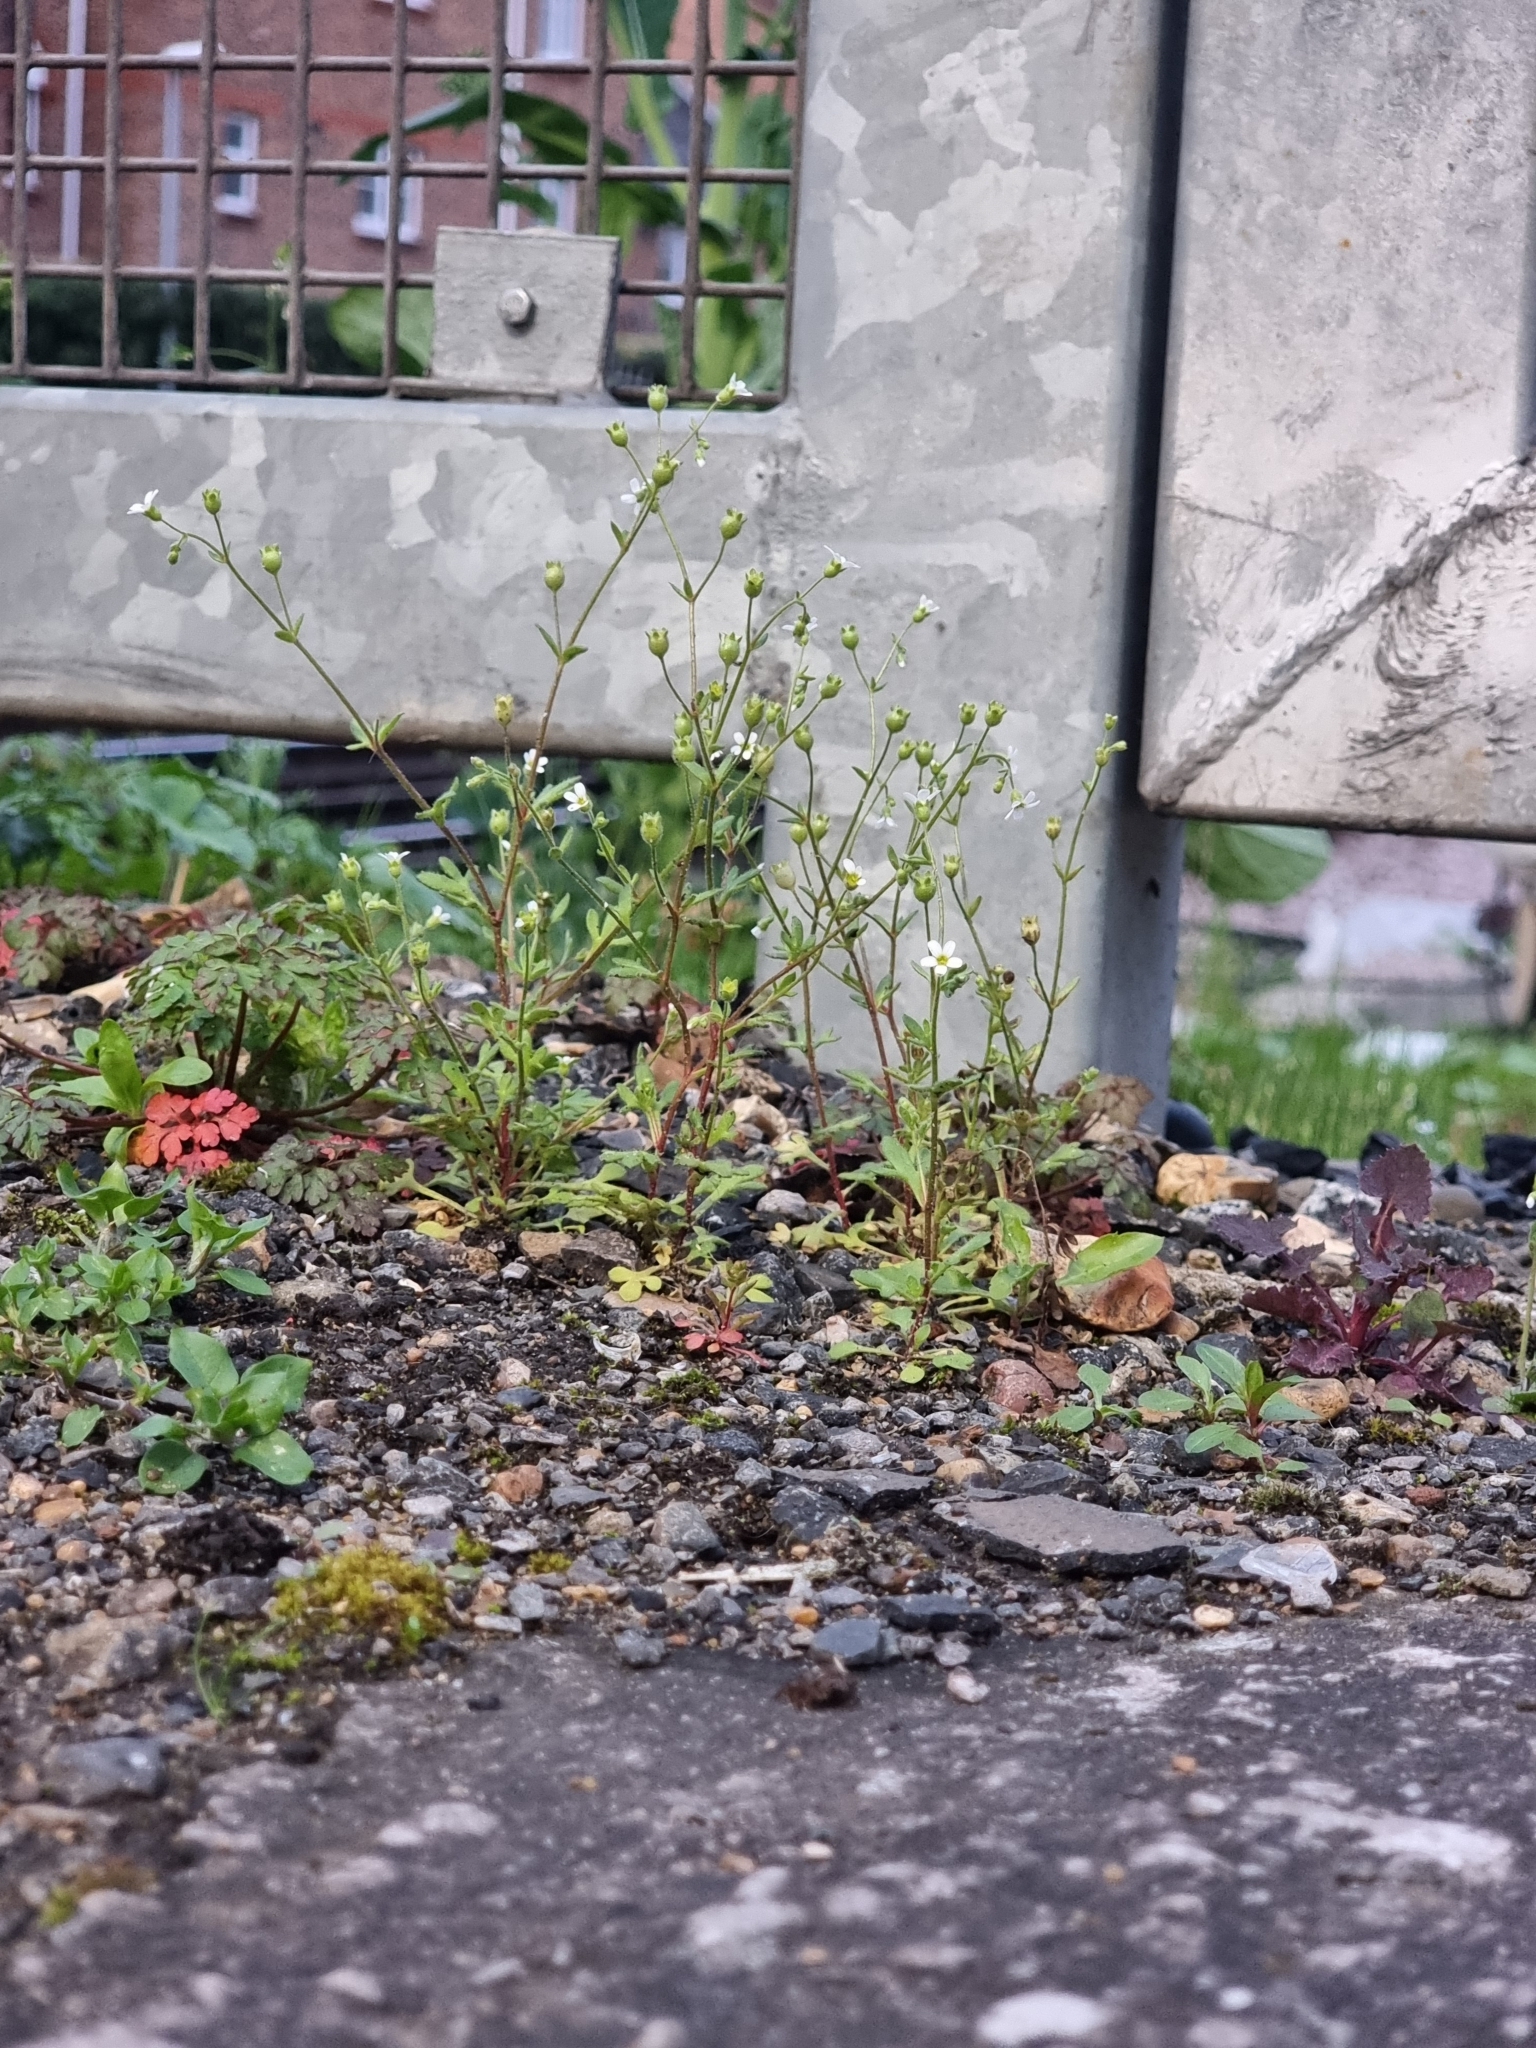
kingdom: Plantae
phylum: Tracheophyta
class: Magnoliopsida
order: Saxifragales
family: Saxifragaceae
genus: Saxifraga
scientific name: Saxifraga tridactylites
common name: Rue-leaved saxifrage
